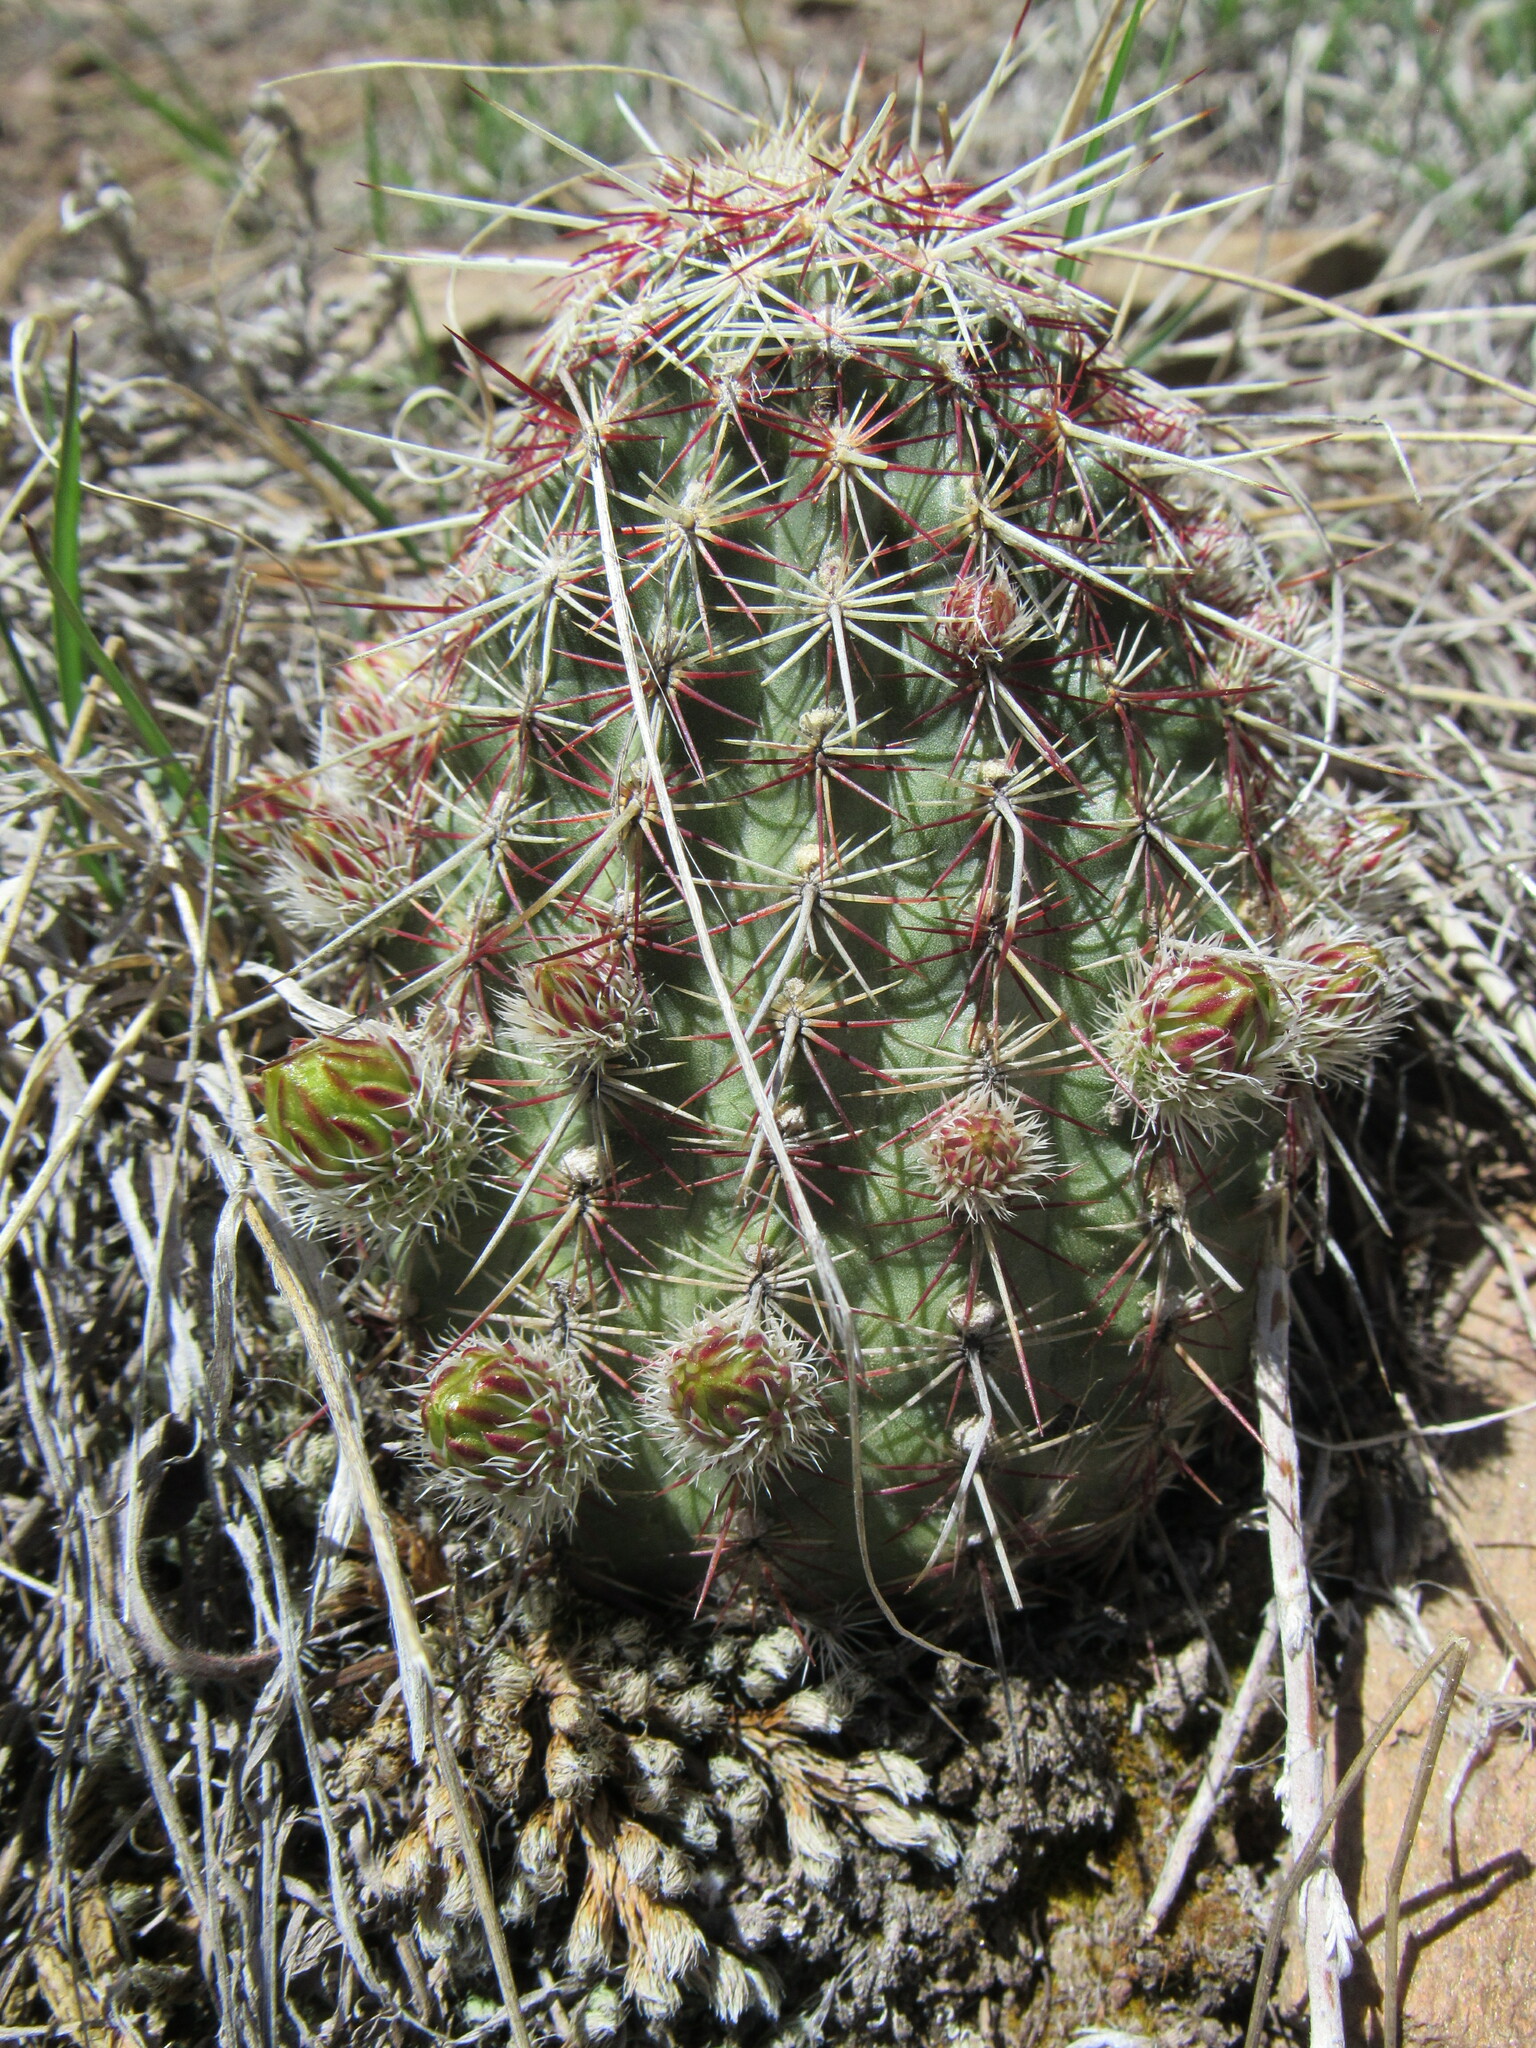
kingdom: Plantae
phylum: Tracheophyta
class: Magnoliopsida
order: Caryophyllales
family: Cactaceae
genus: Echinocereus
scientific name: Echinocereus viridiflorus
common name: Nylon hedgehog cactus
